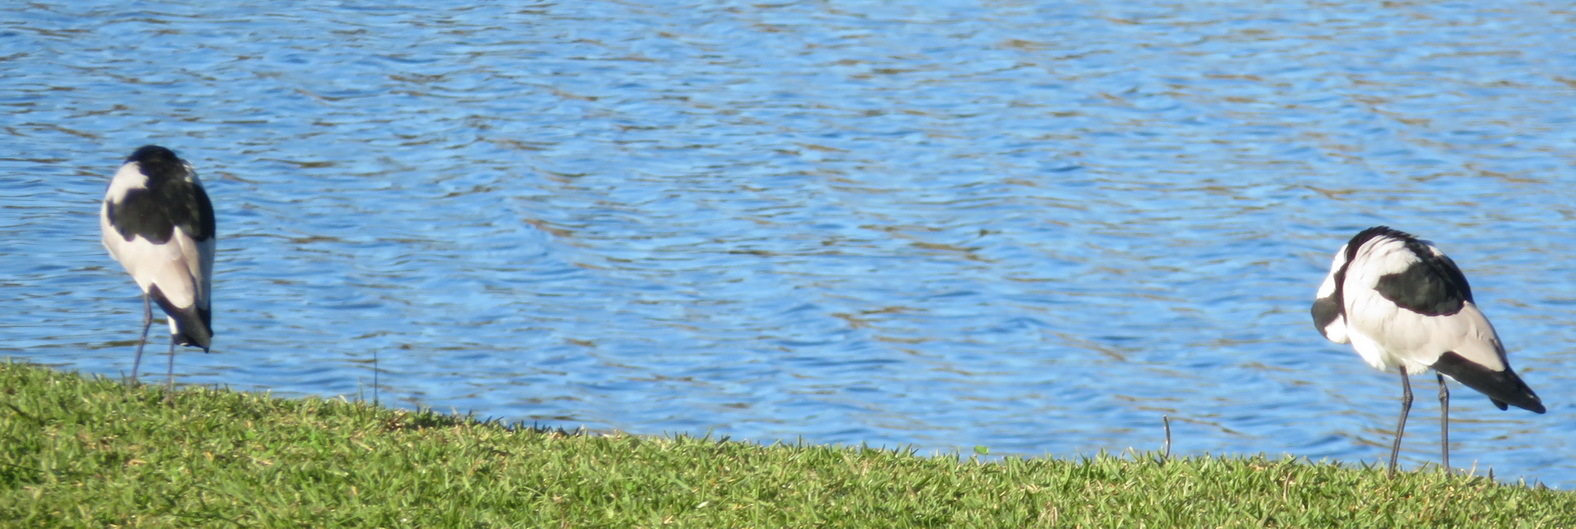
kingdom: Animalia
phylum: Chordata
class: Aves
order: Charadriiformes
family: Charadriidae
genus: Vanellus
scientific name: Vanellus armatus
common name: Blacksmith lapwing
